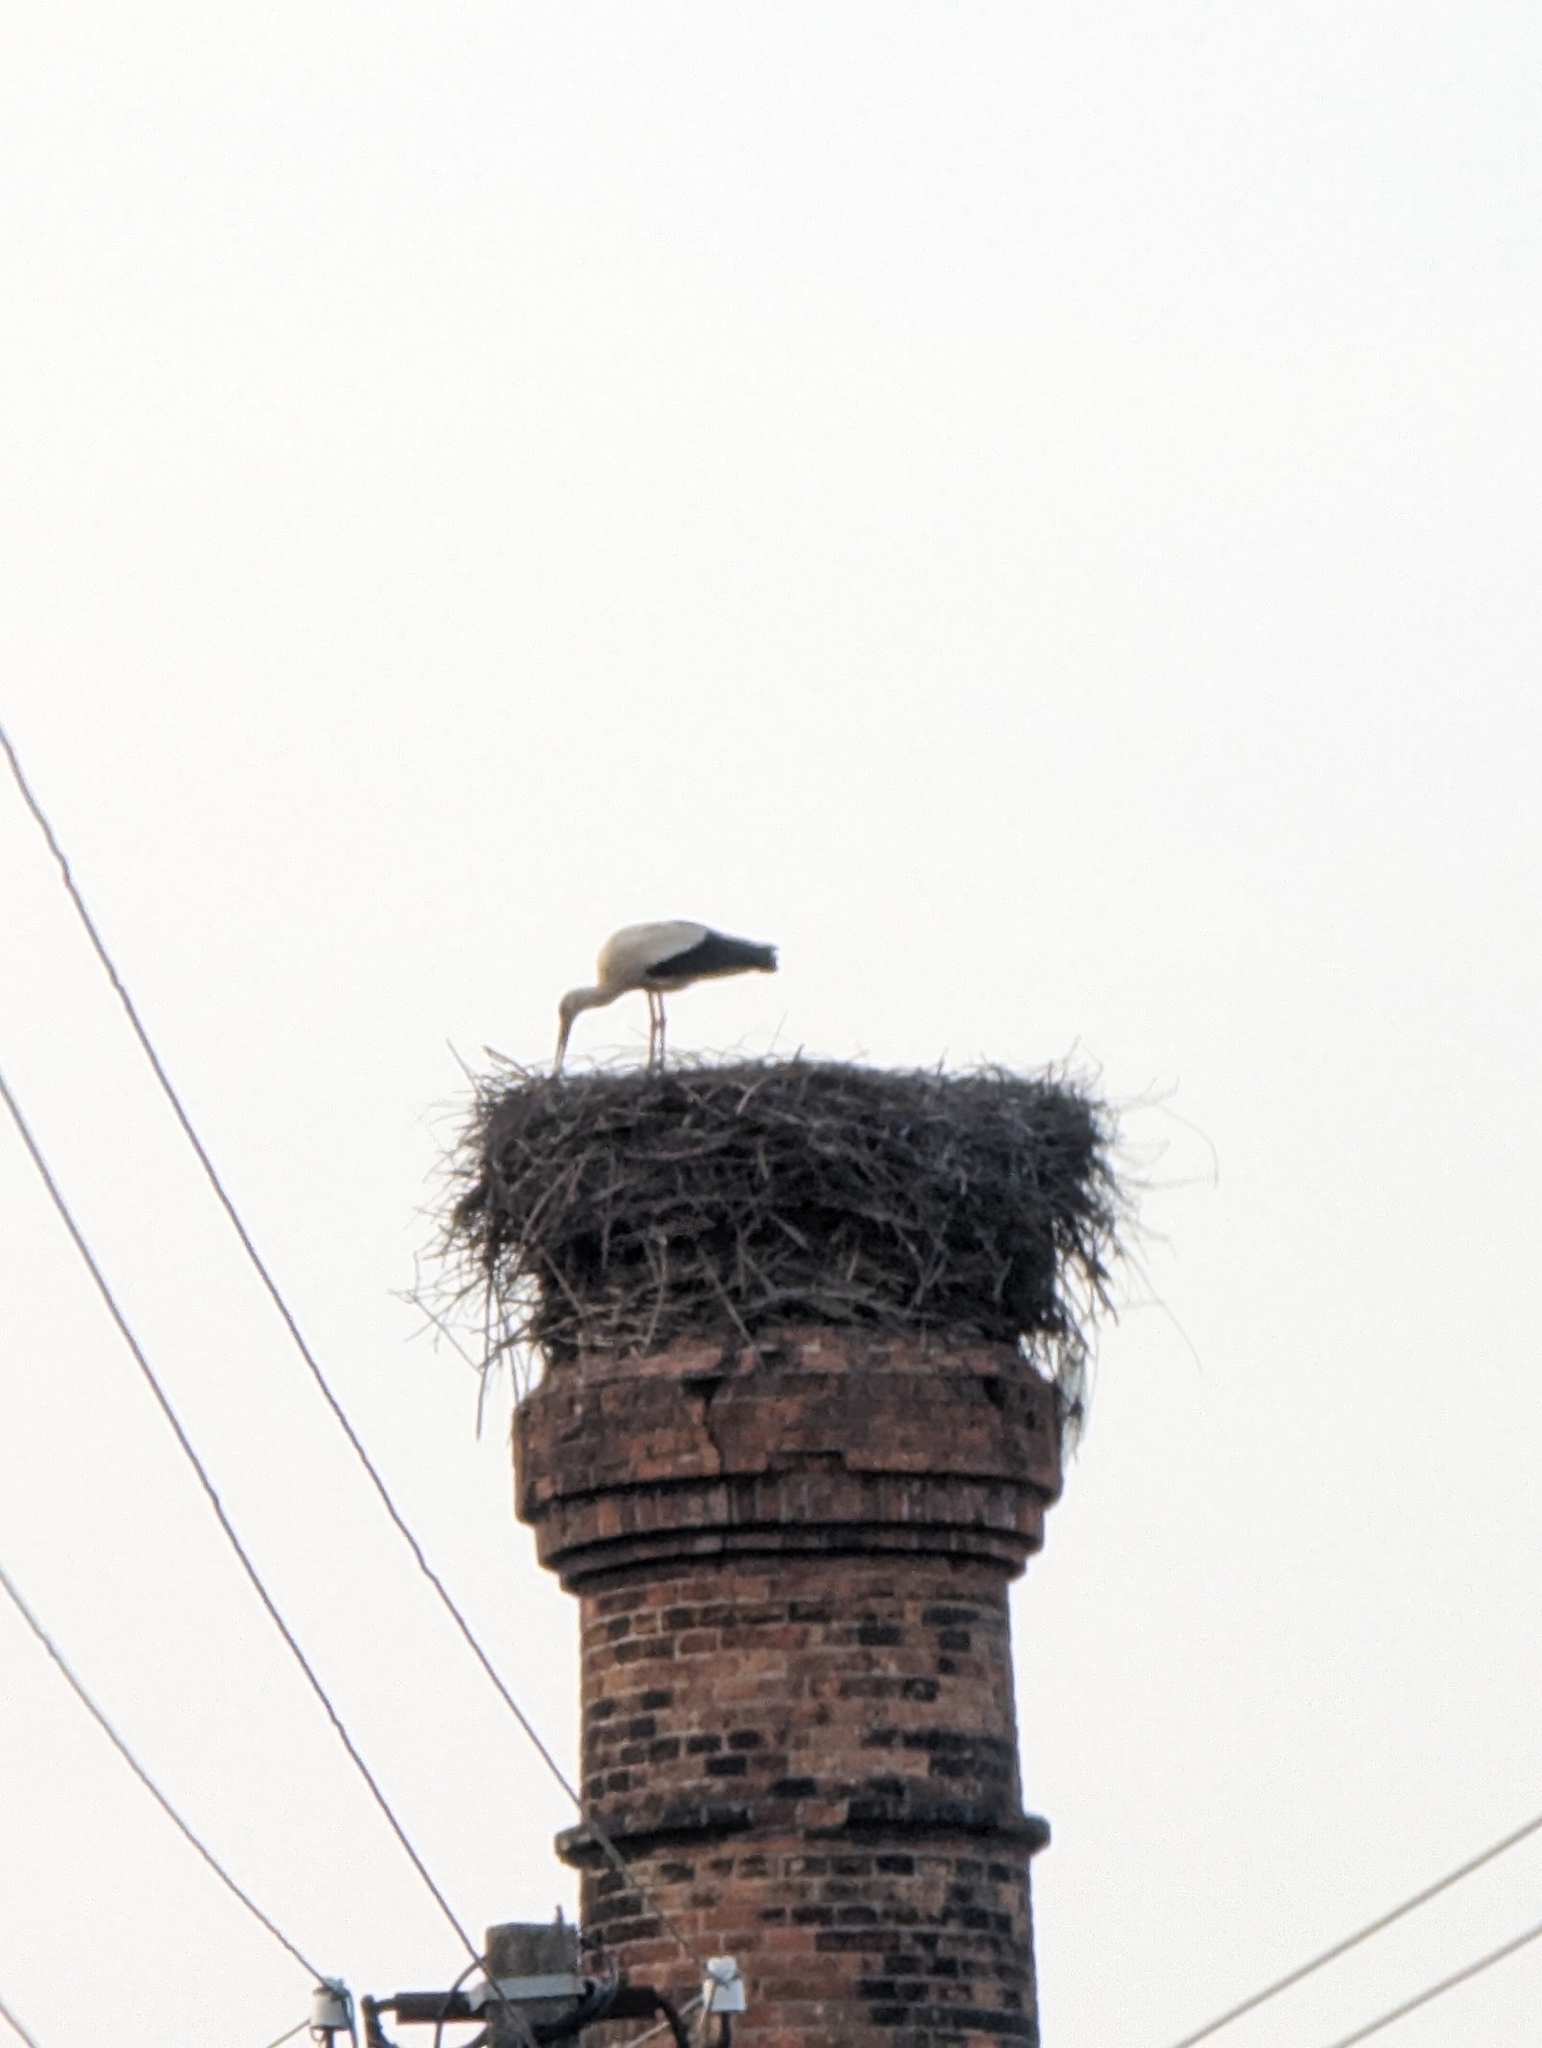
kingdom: Animalia
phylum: Chordata
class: Aves
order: Ciconiiformes
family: Ciconiidae
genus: Ciconia
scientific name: Ciconia ciconia
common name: White stork
